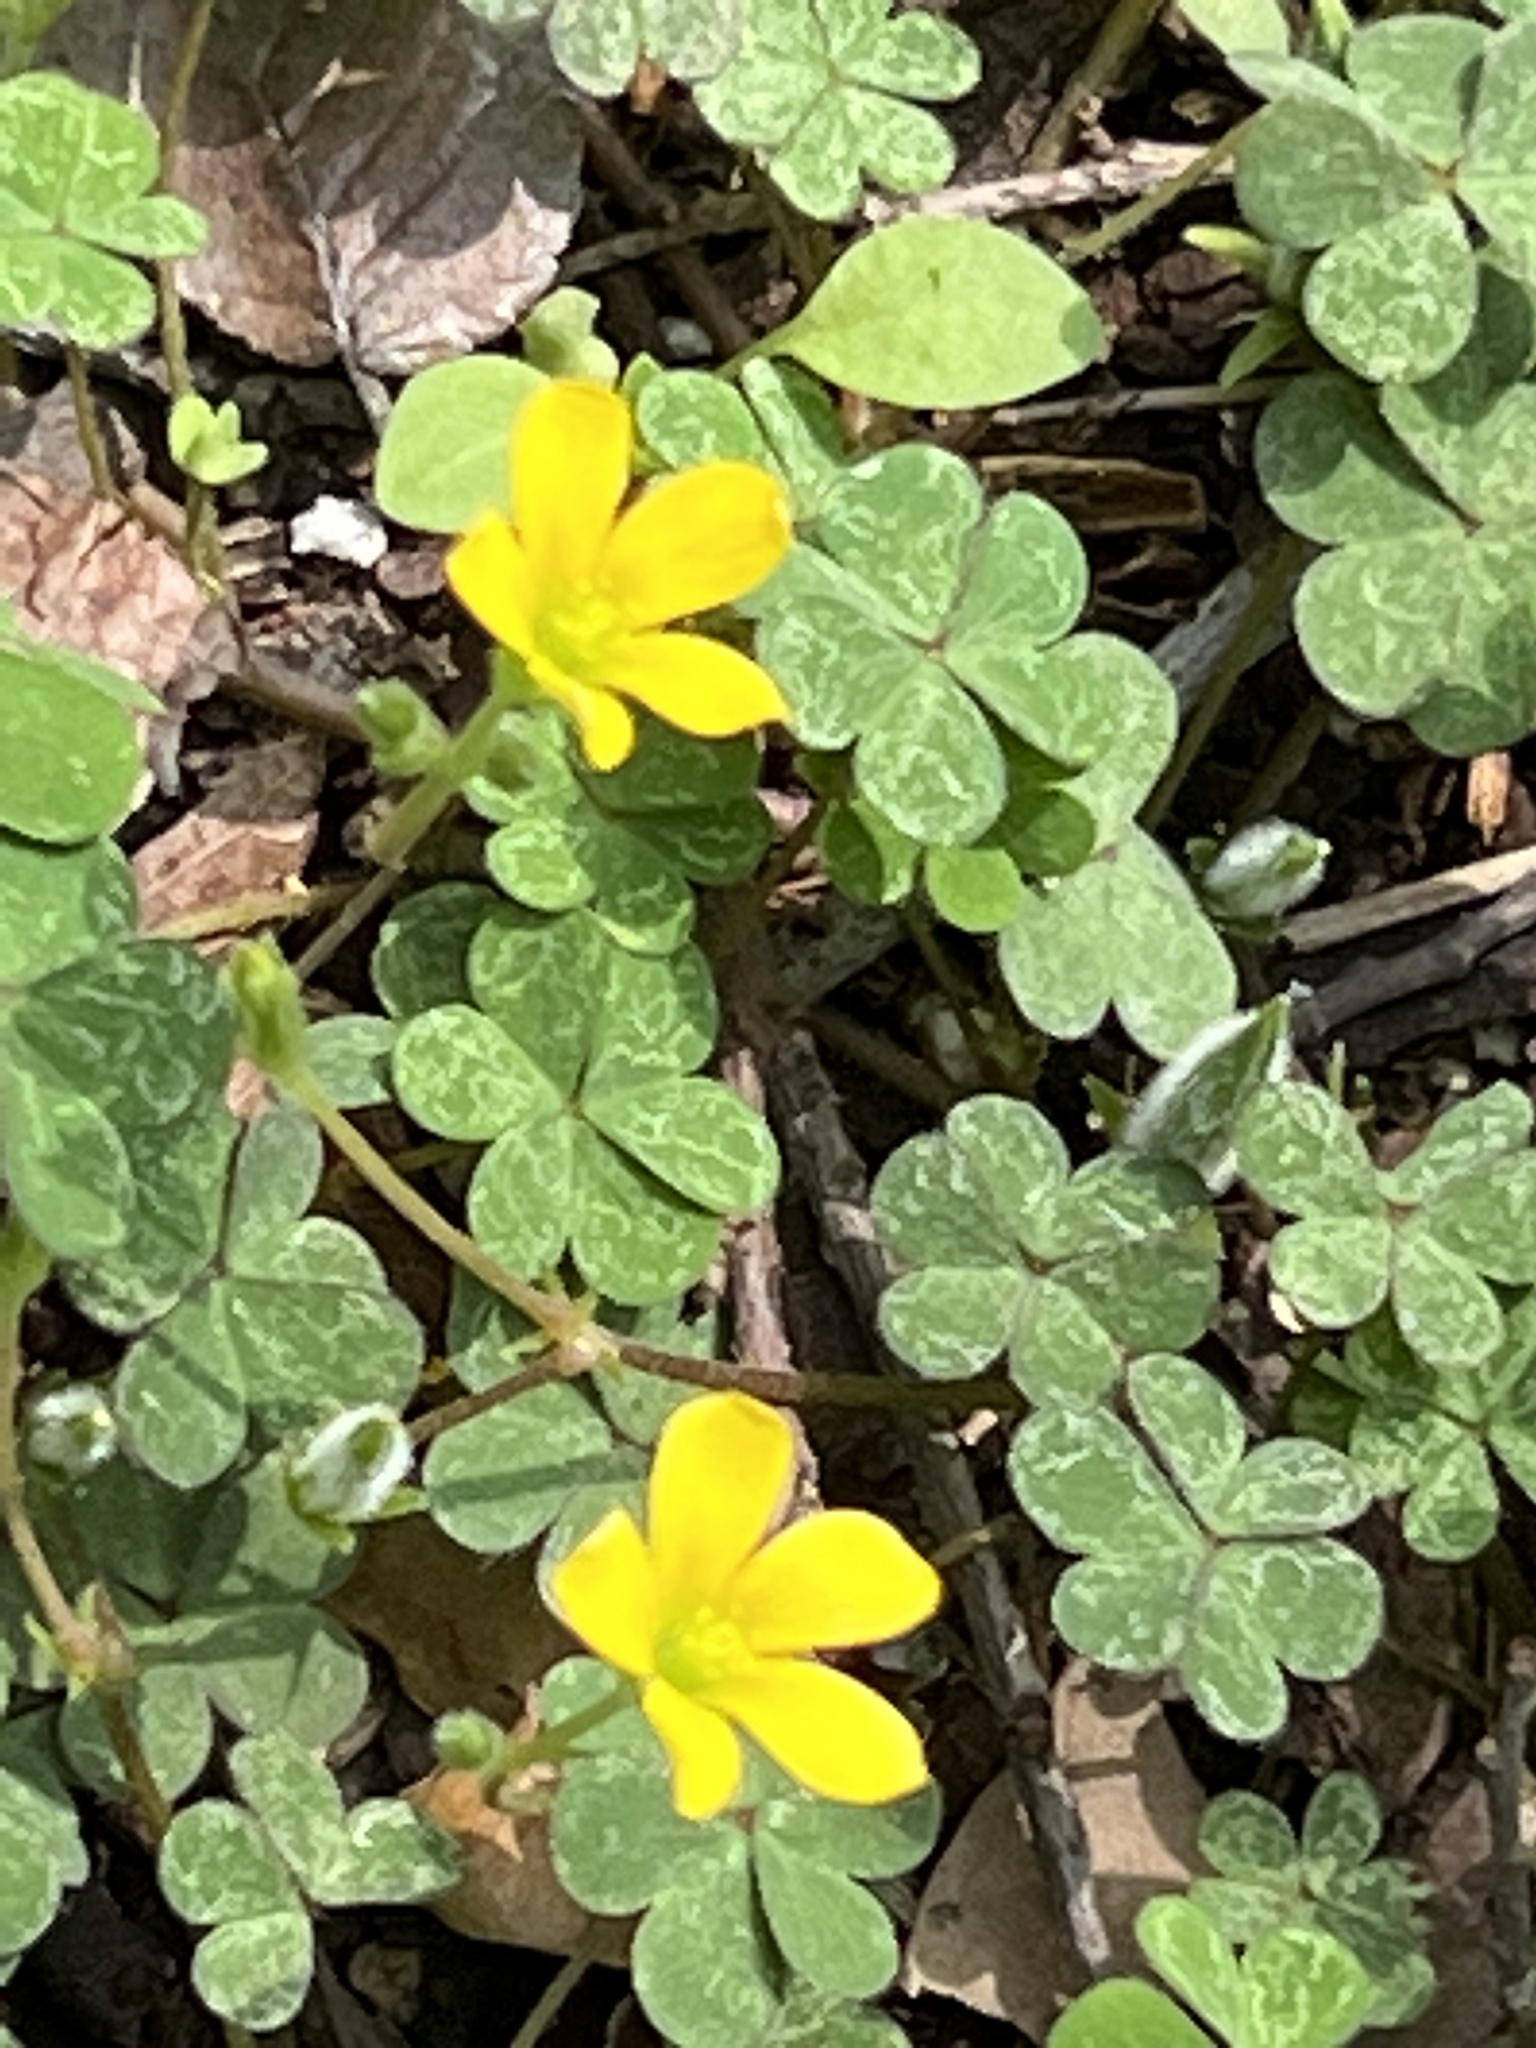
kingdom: Plantae
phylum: Tracheophyta
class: Magnoliopsida
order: Oxalidales
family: Oxalidaceae
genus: Oxalis
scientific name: Oxalis corniculata
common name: Procumbent yellow-sorrel
